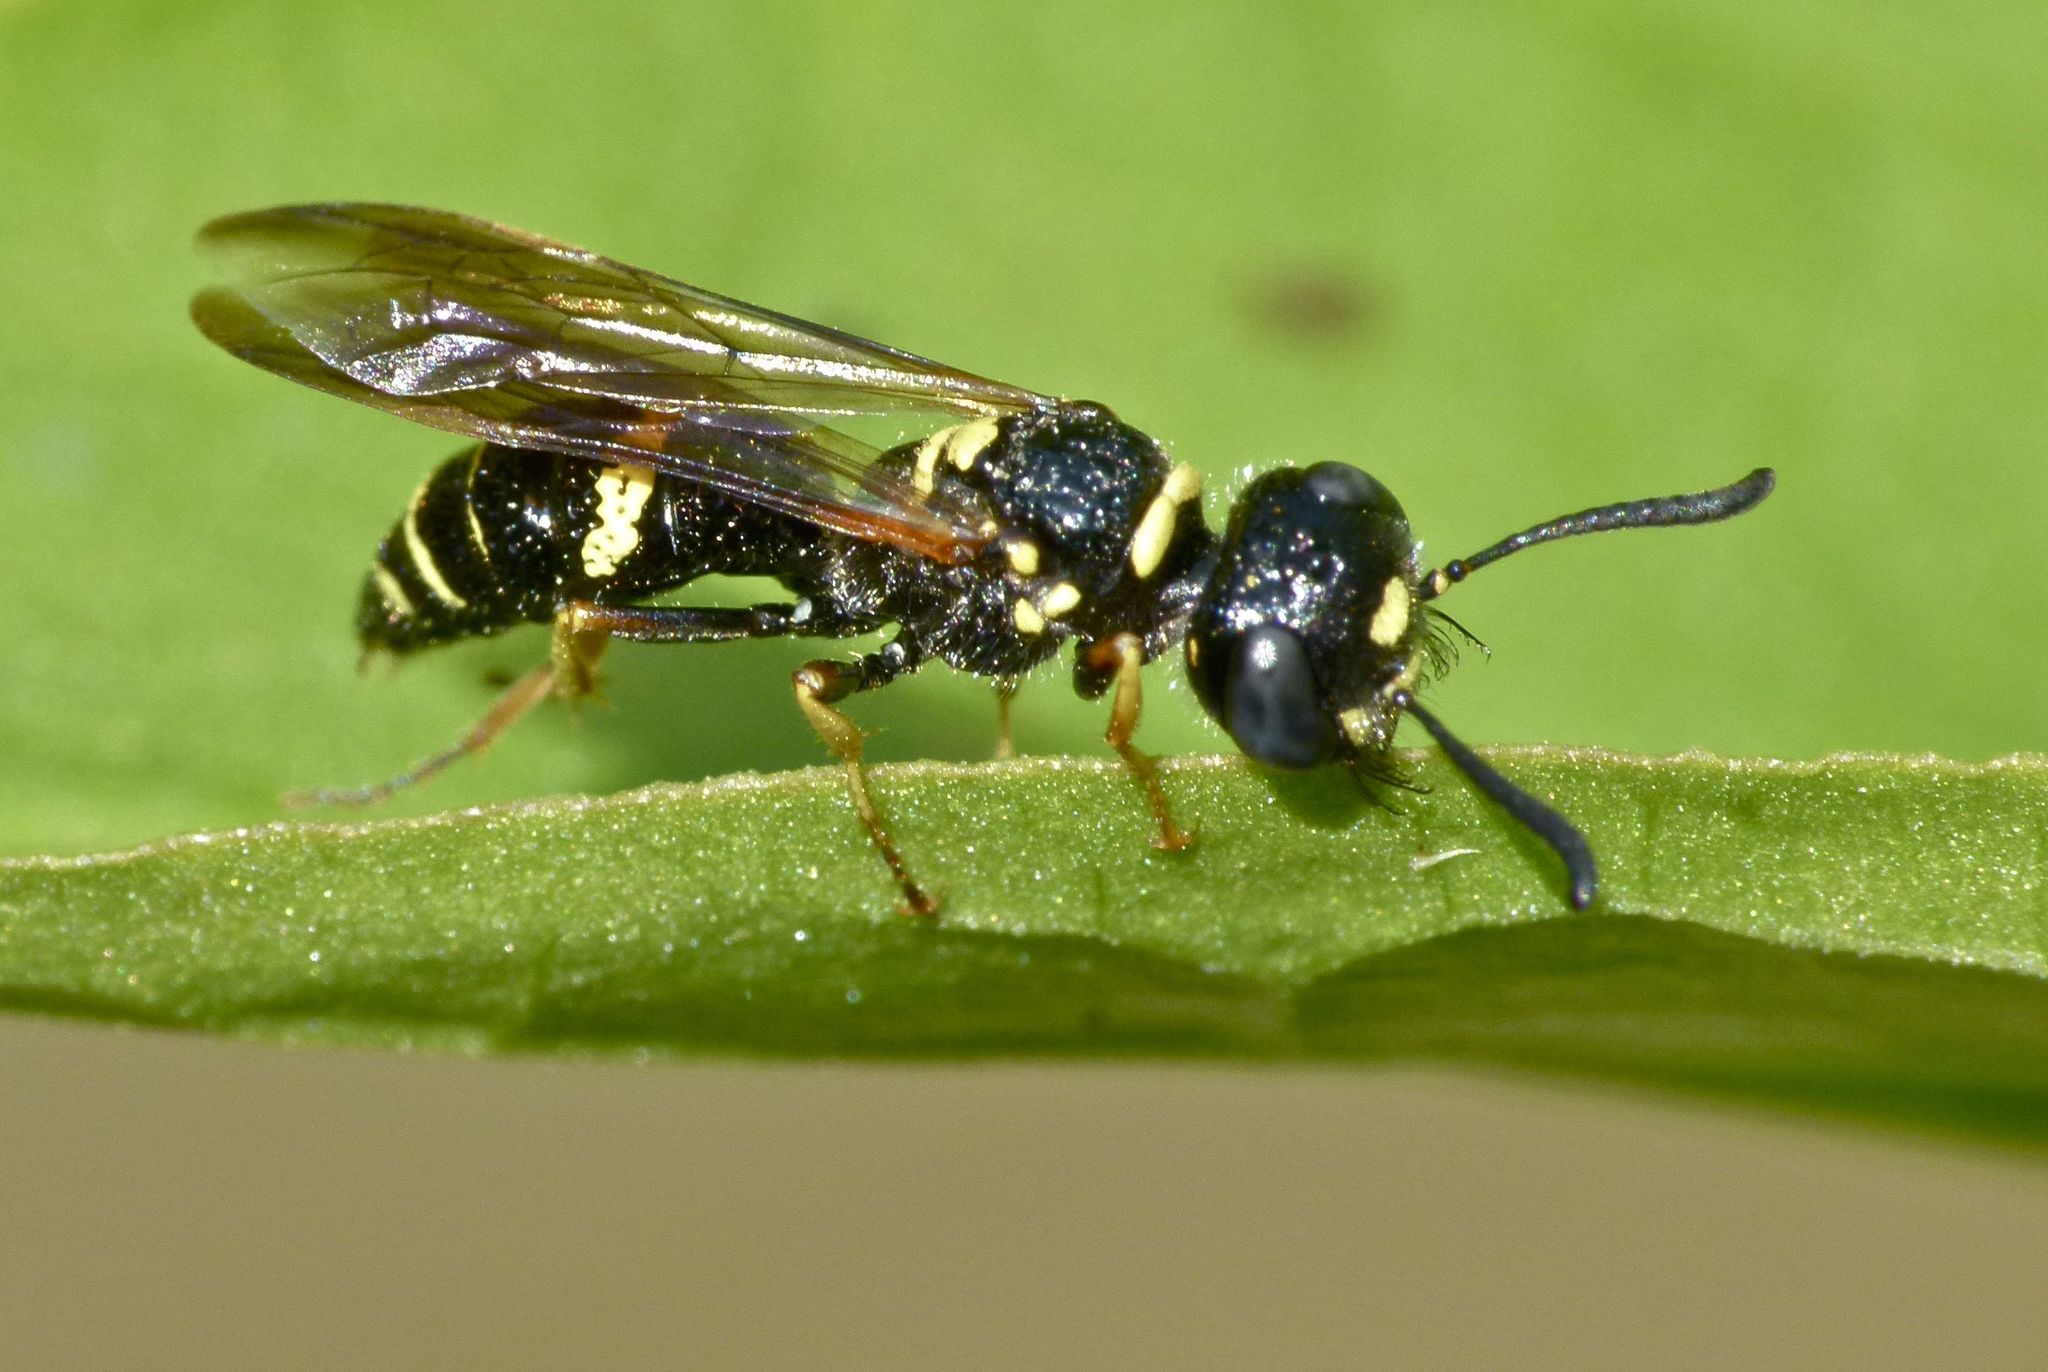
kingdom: Animalia
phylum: Arthropoda
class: Insecta
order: Hymenoptera
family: Crabronidae
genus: Philanthus
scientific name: Philanthus gibbosus
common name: Humped beewolf
